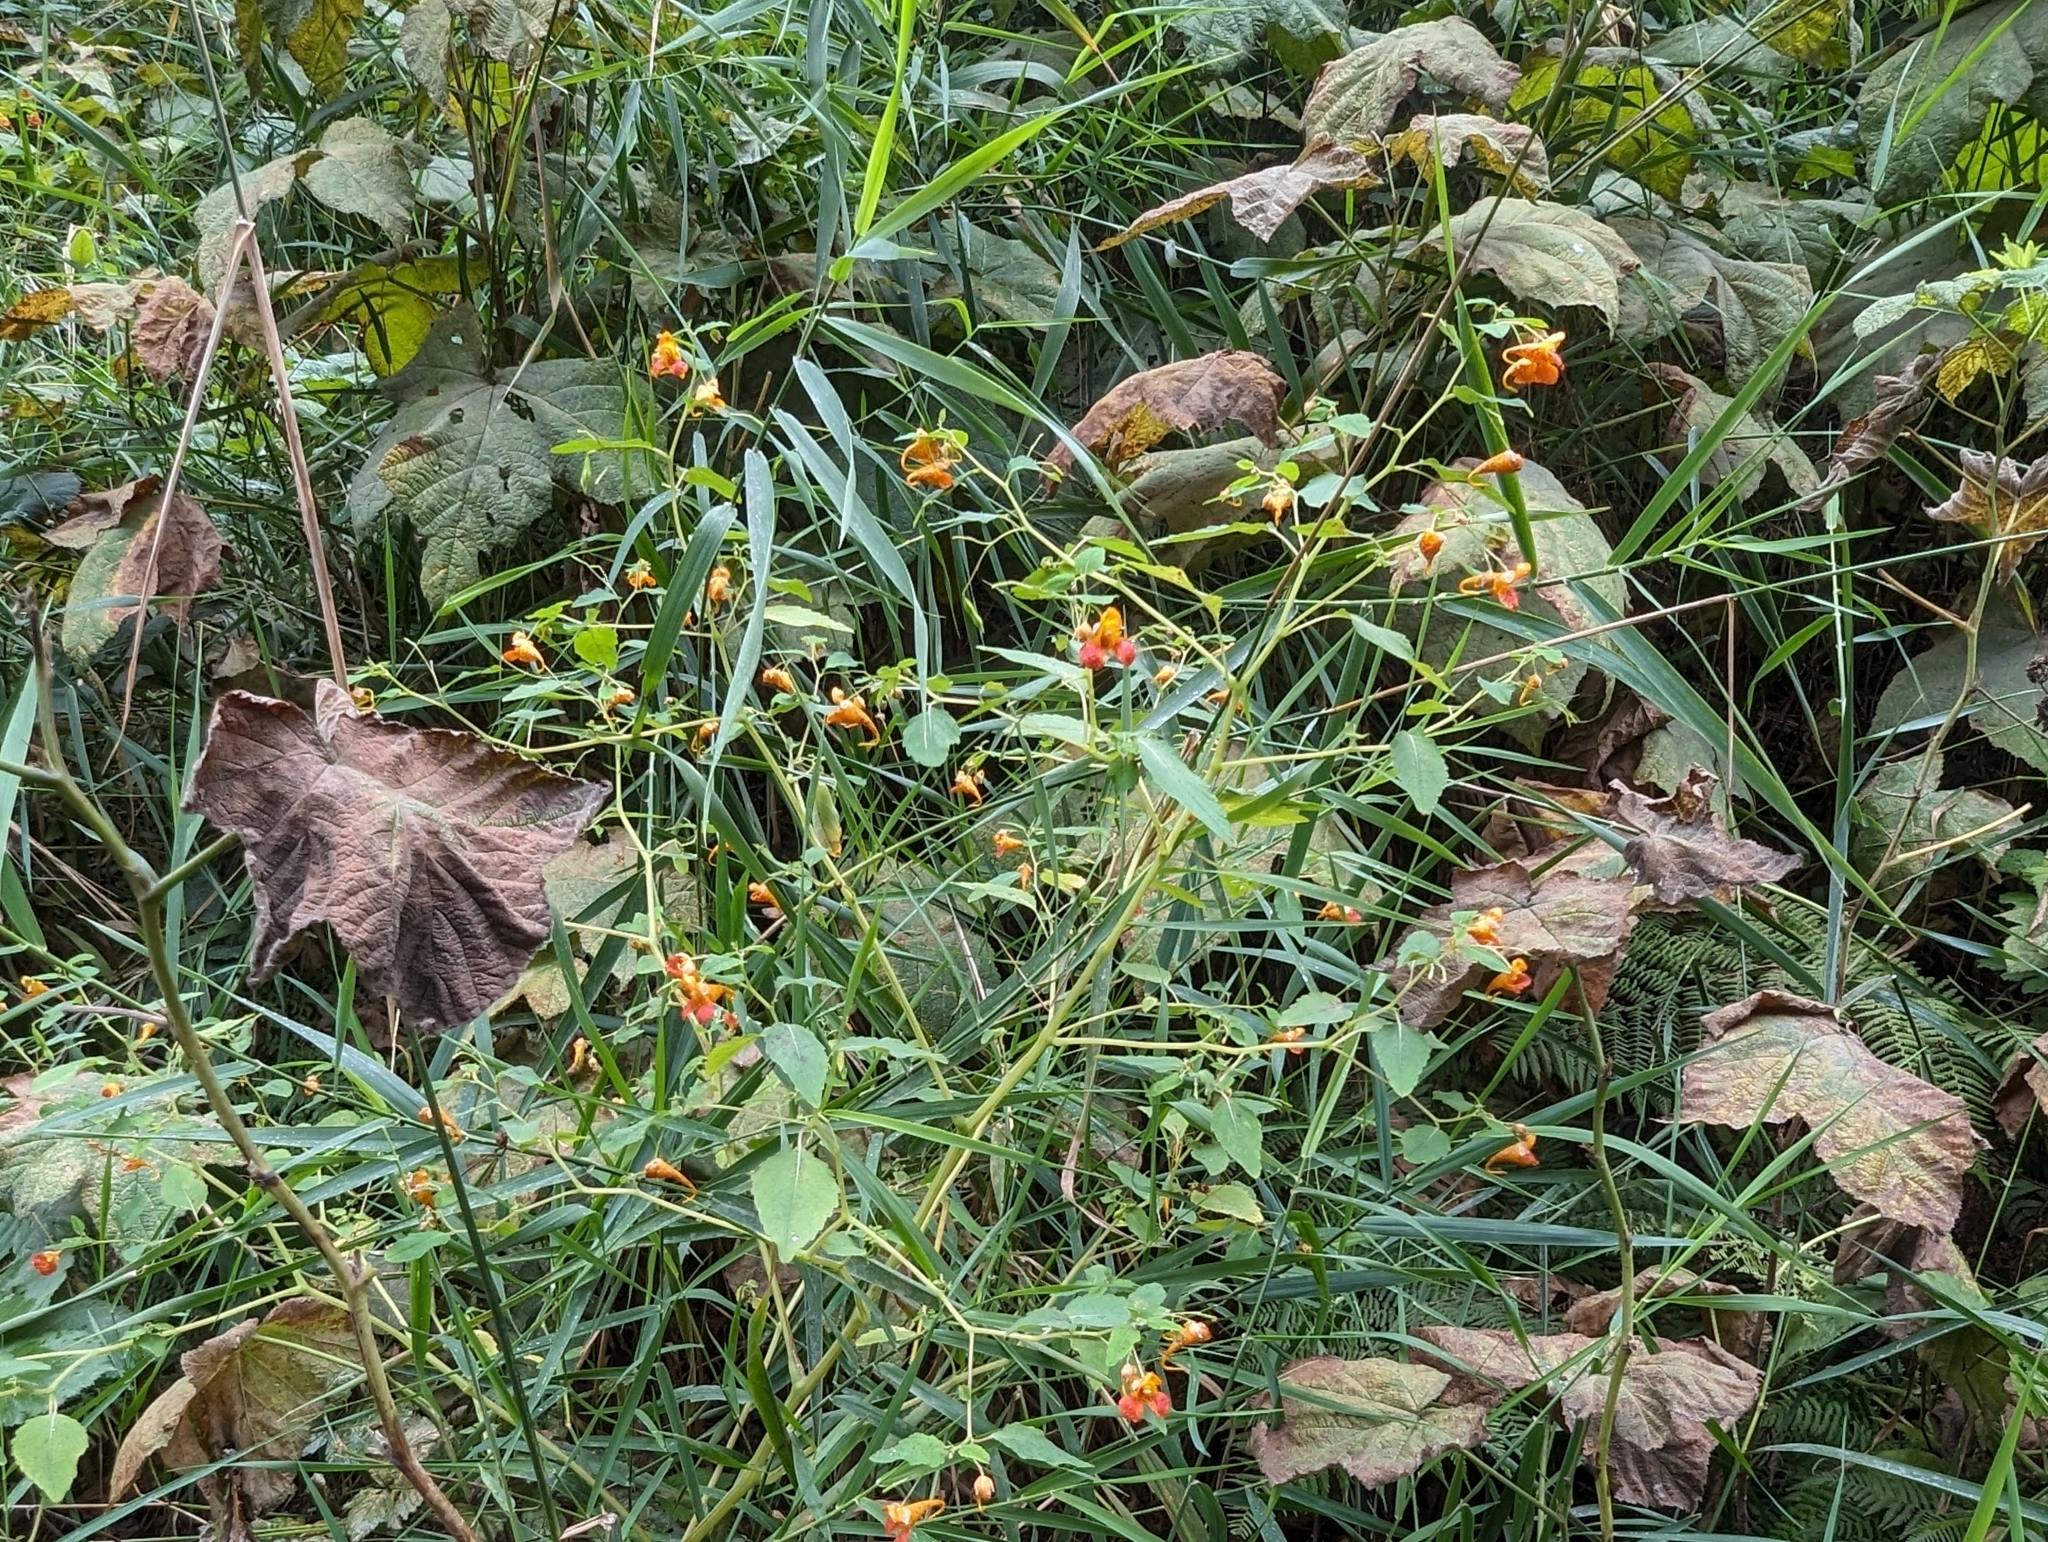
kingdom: Plantae
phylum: Tracheophyta
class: Magnoliopsida
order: Ericales
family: Balsaminaceae
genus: Impatiens
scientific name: Impatiens capensis
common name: Orange balsam
